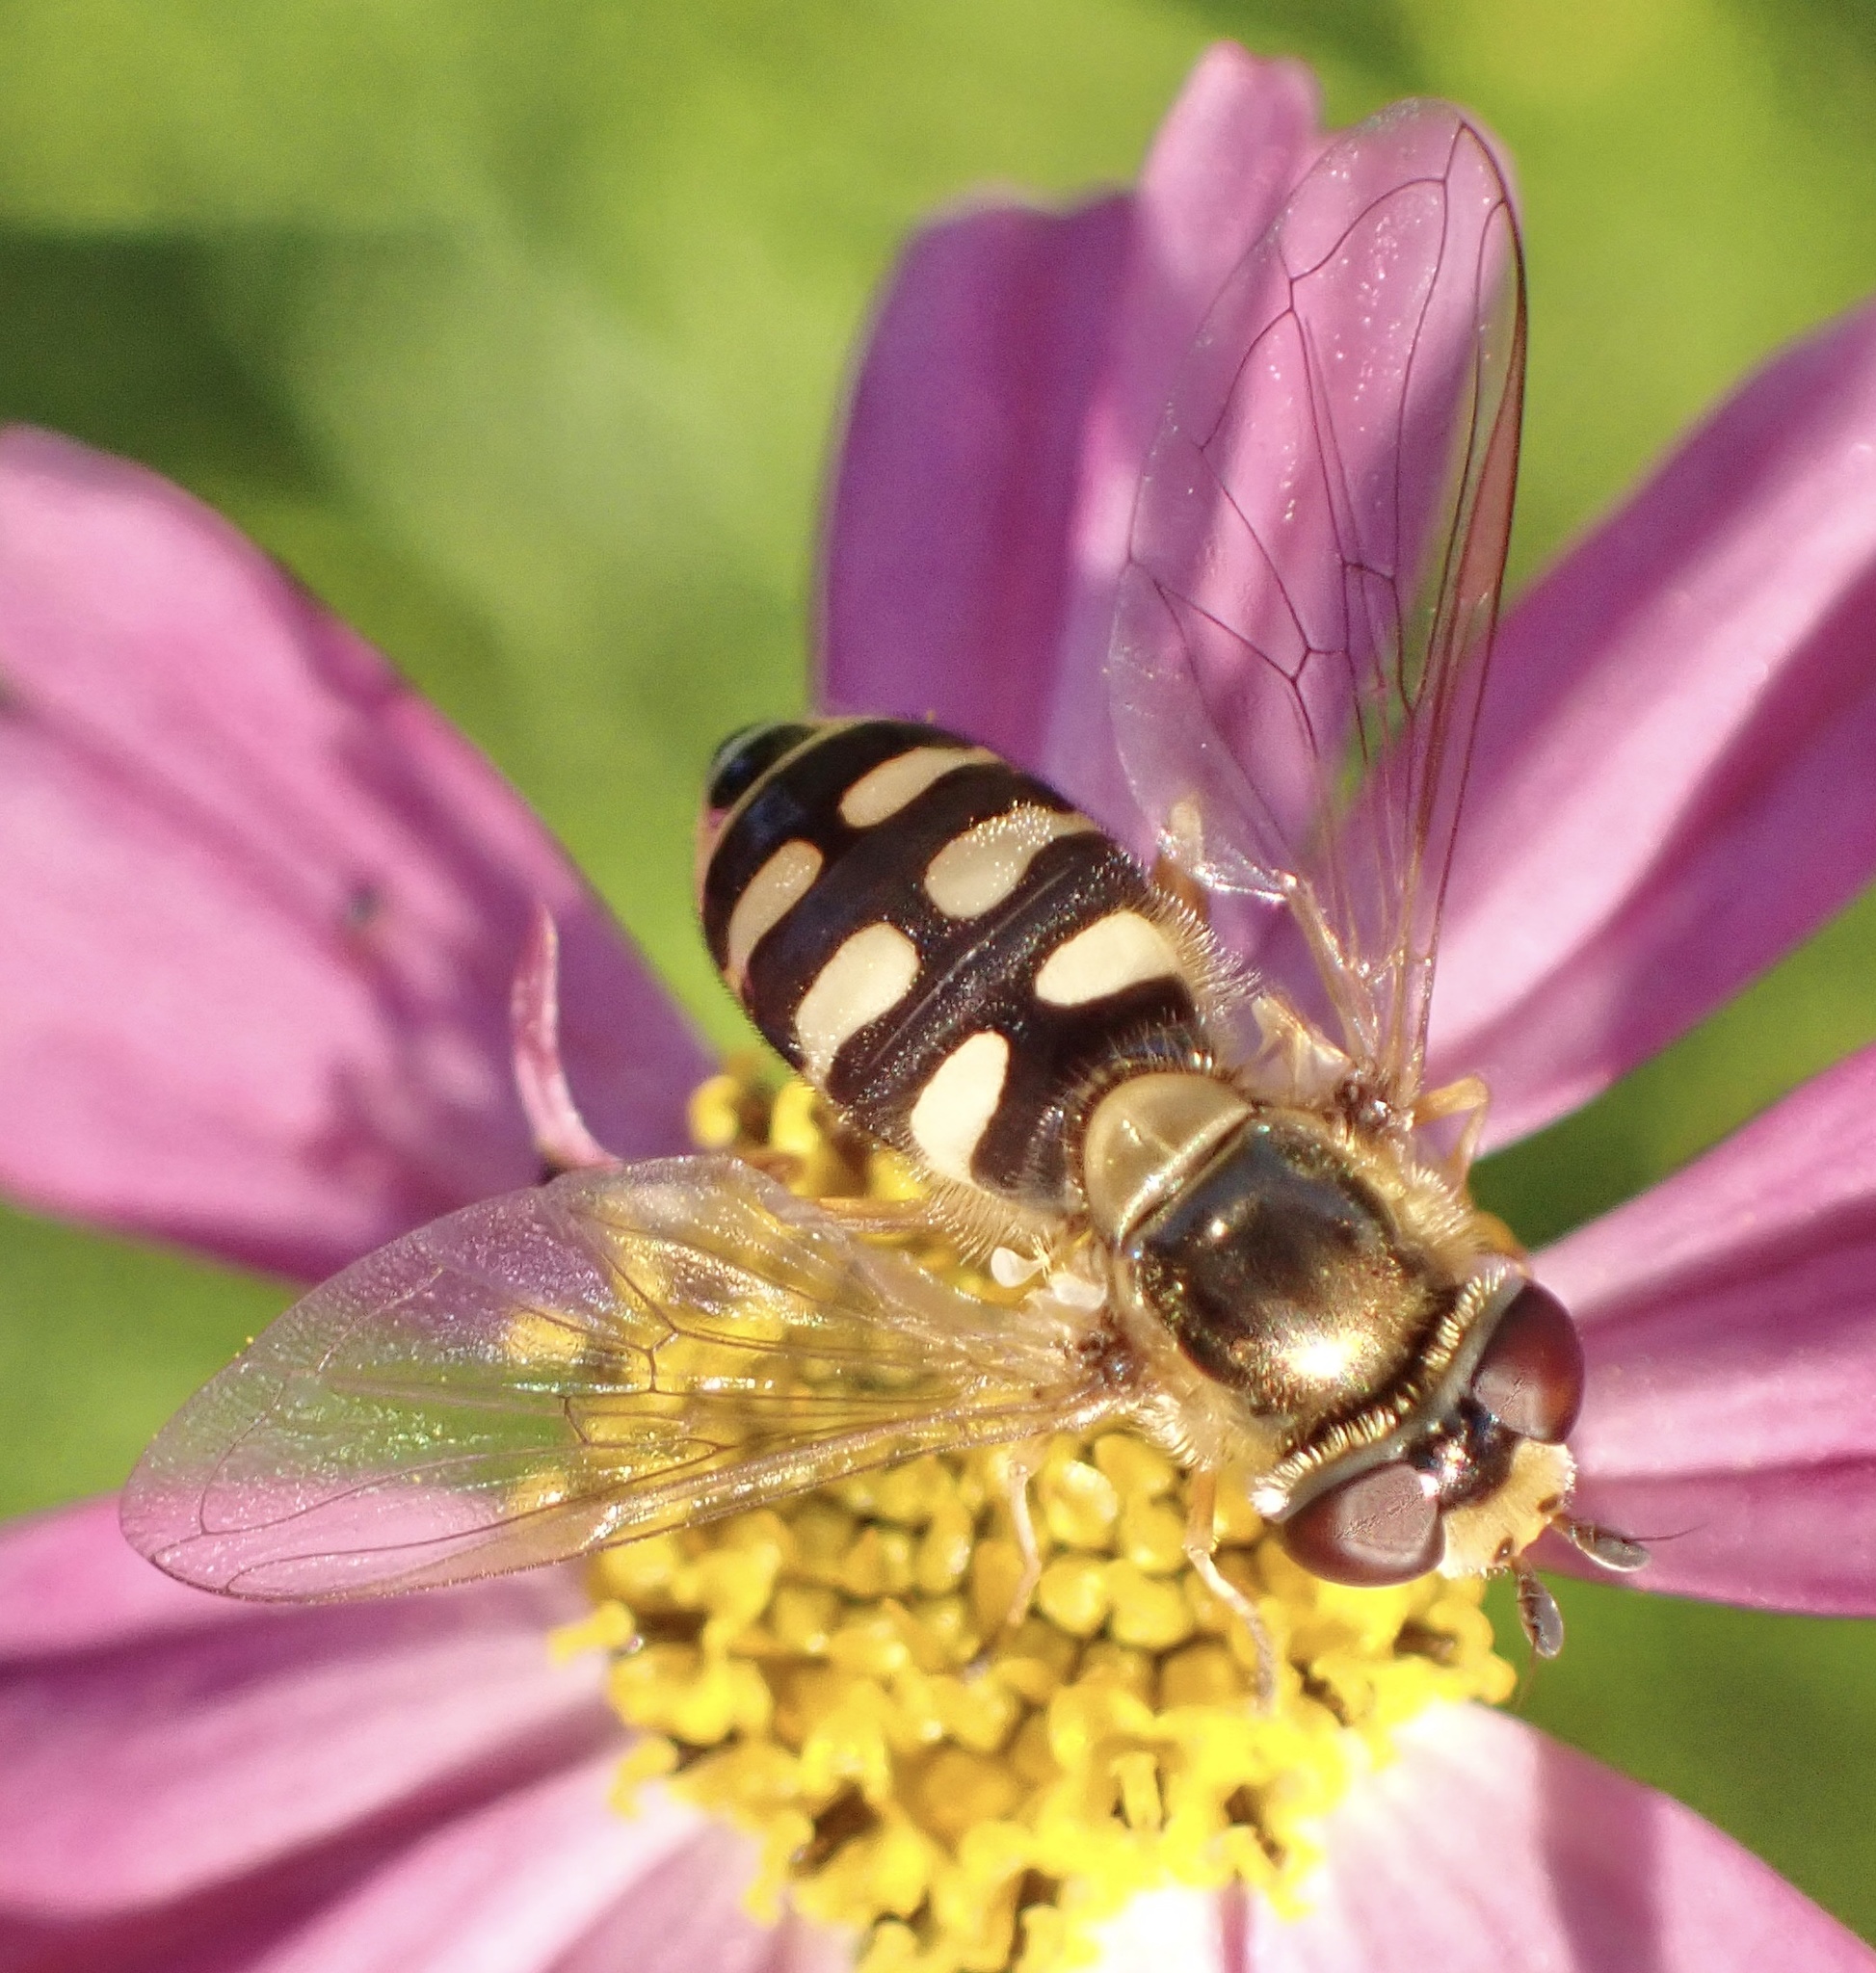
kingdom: Animalia
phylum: Arthropoda
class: Insecta
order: Diptera
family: Syrphidae
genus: Eupeodes
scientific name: Eupeodes corollae
